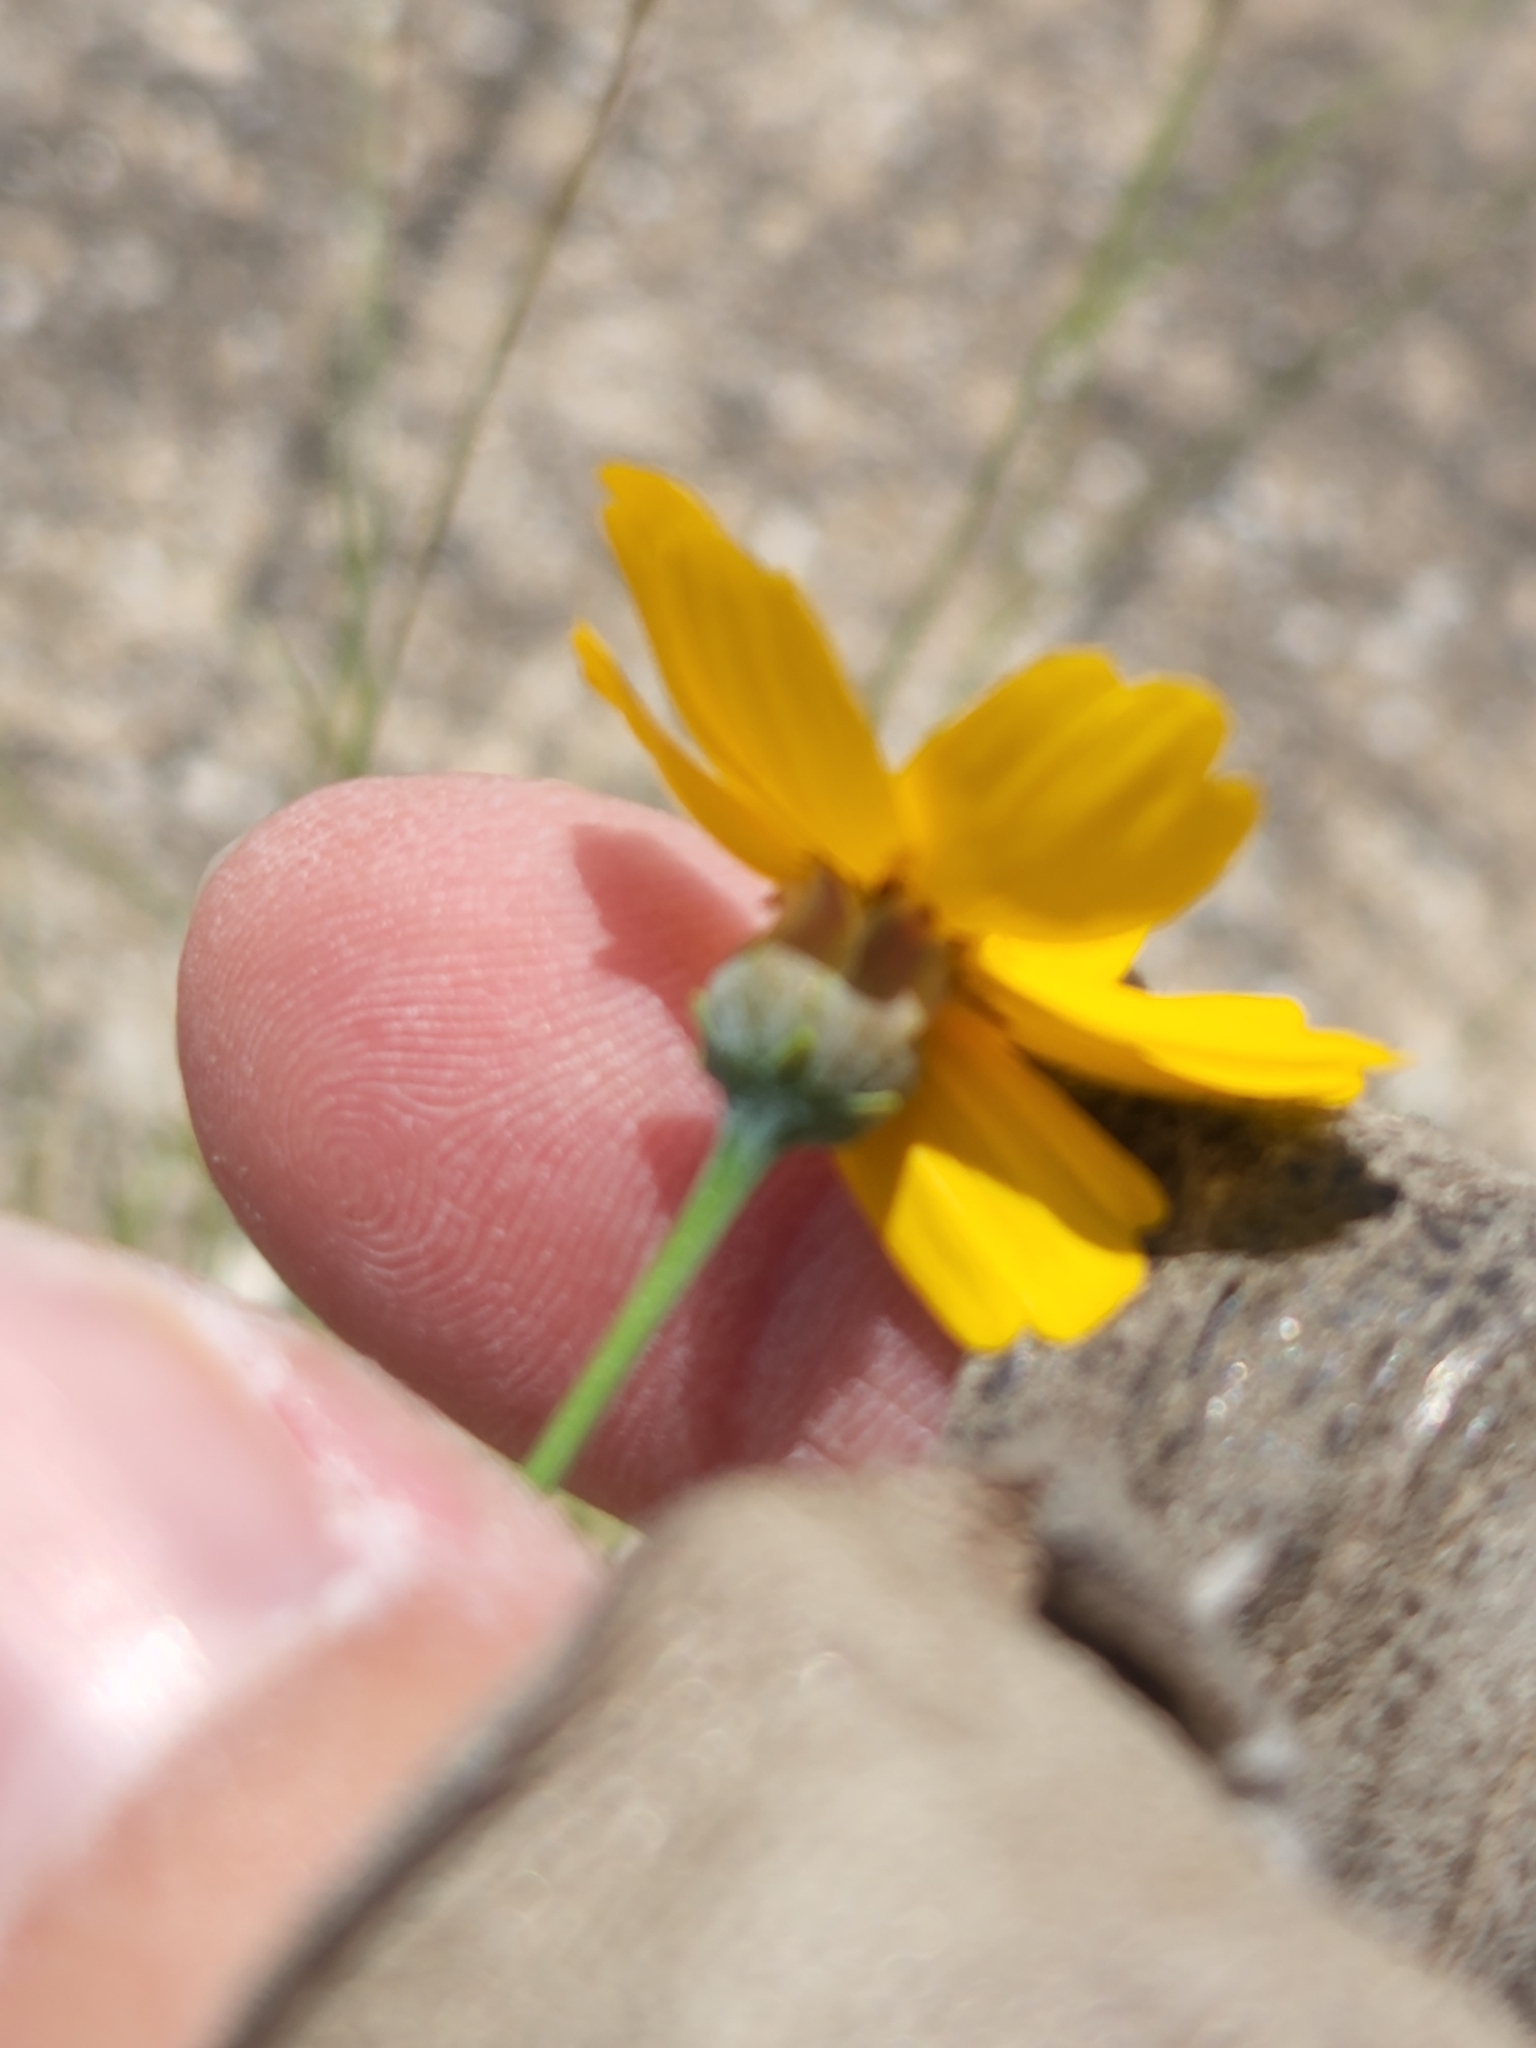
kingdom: Plantae
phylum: Tracheophyta
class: Magnoliopsida
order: Asterales
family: Asteraceae
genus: Thelesperma
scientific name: Thelesperma simplicifolium
